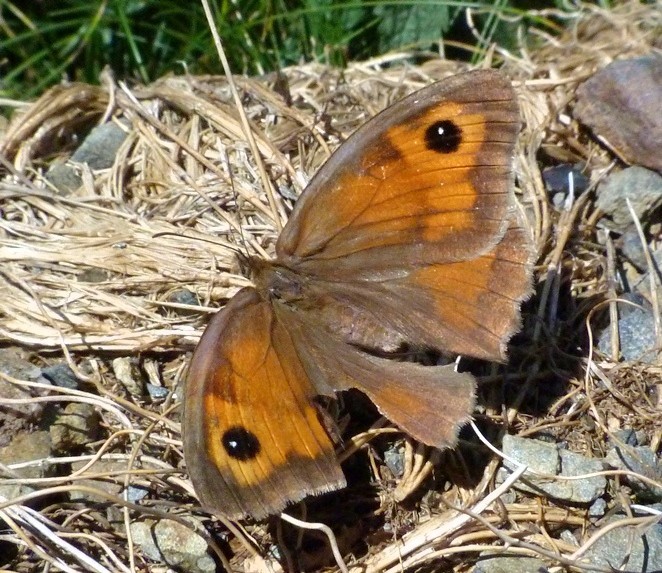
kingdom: Animalia
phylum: Arthropoda
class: Insecta
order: Lepidoptera
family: Nymphalidae
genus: Maniola
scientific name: Maniola jurtina
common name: Meadow brown
